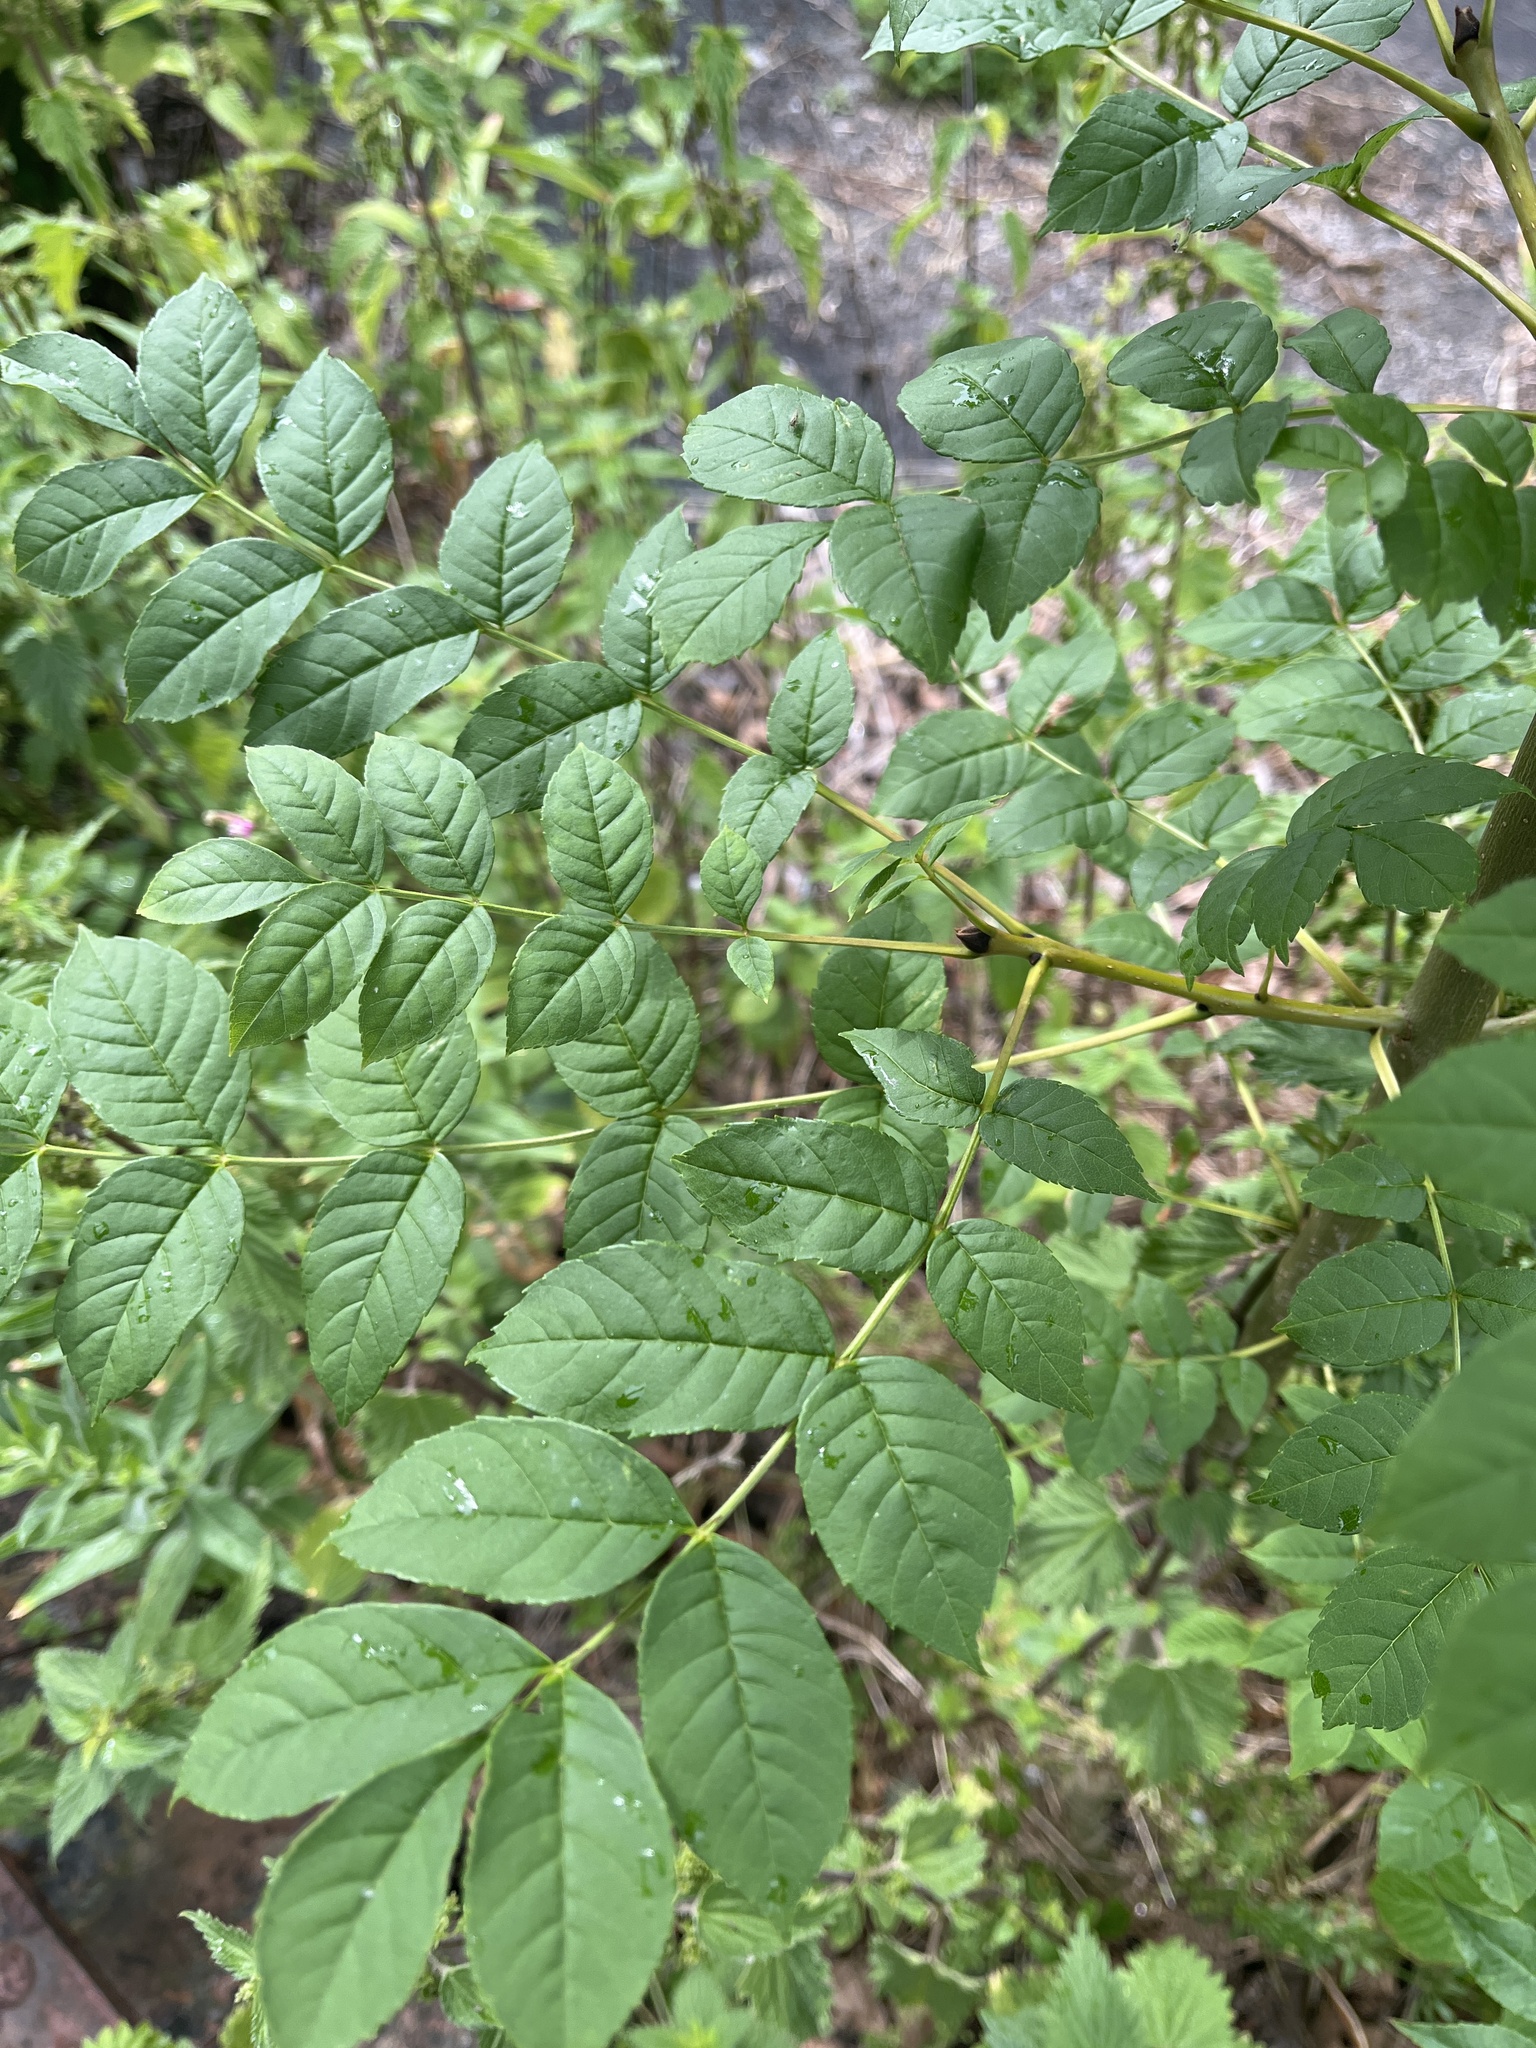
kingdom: Plantae
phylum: Tracheophyta
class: Magnoliopsida
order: Lamiales
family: Oleaceae
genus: Fraxinus
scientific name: Fraxinus excelsior
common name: European ash
